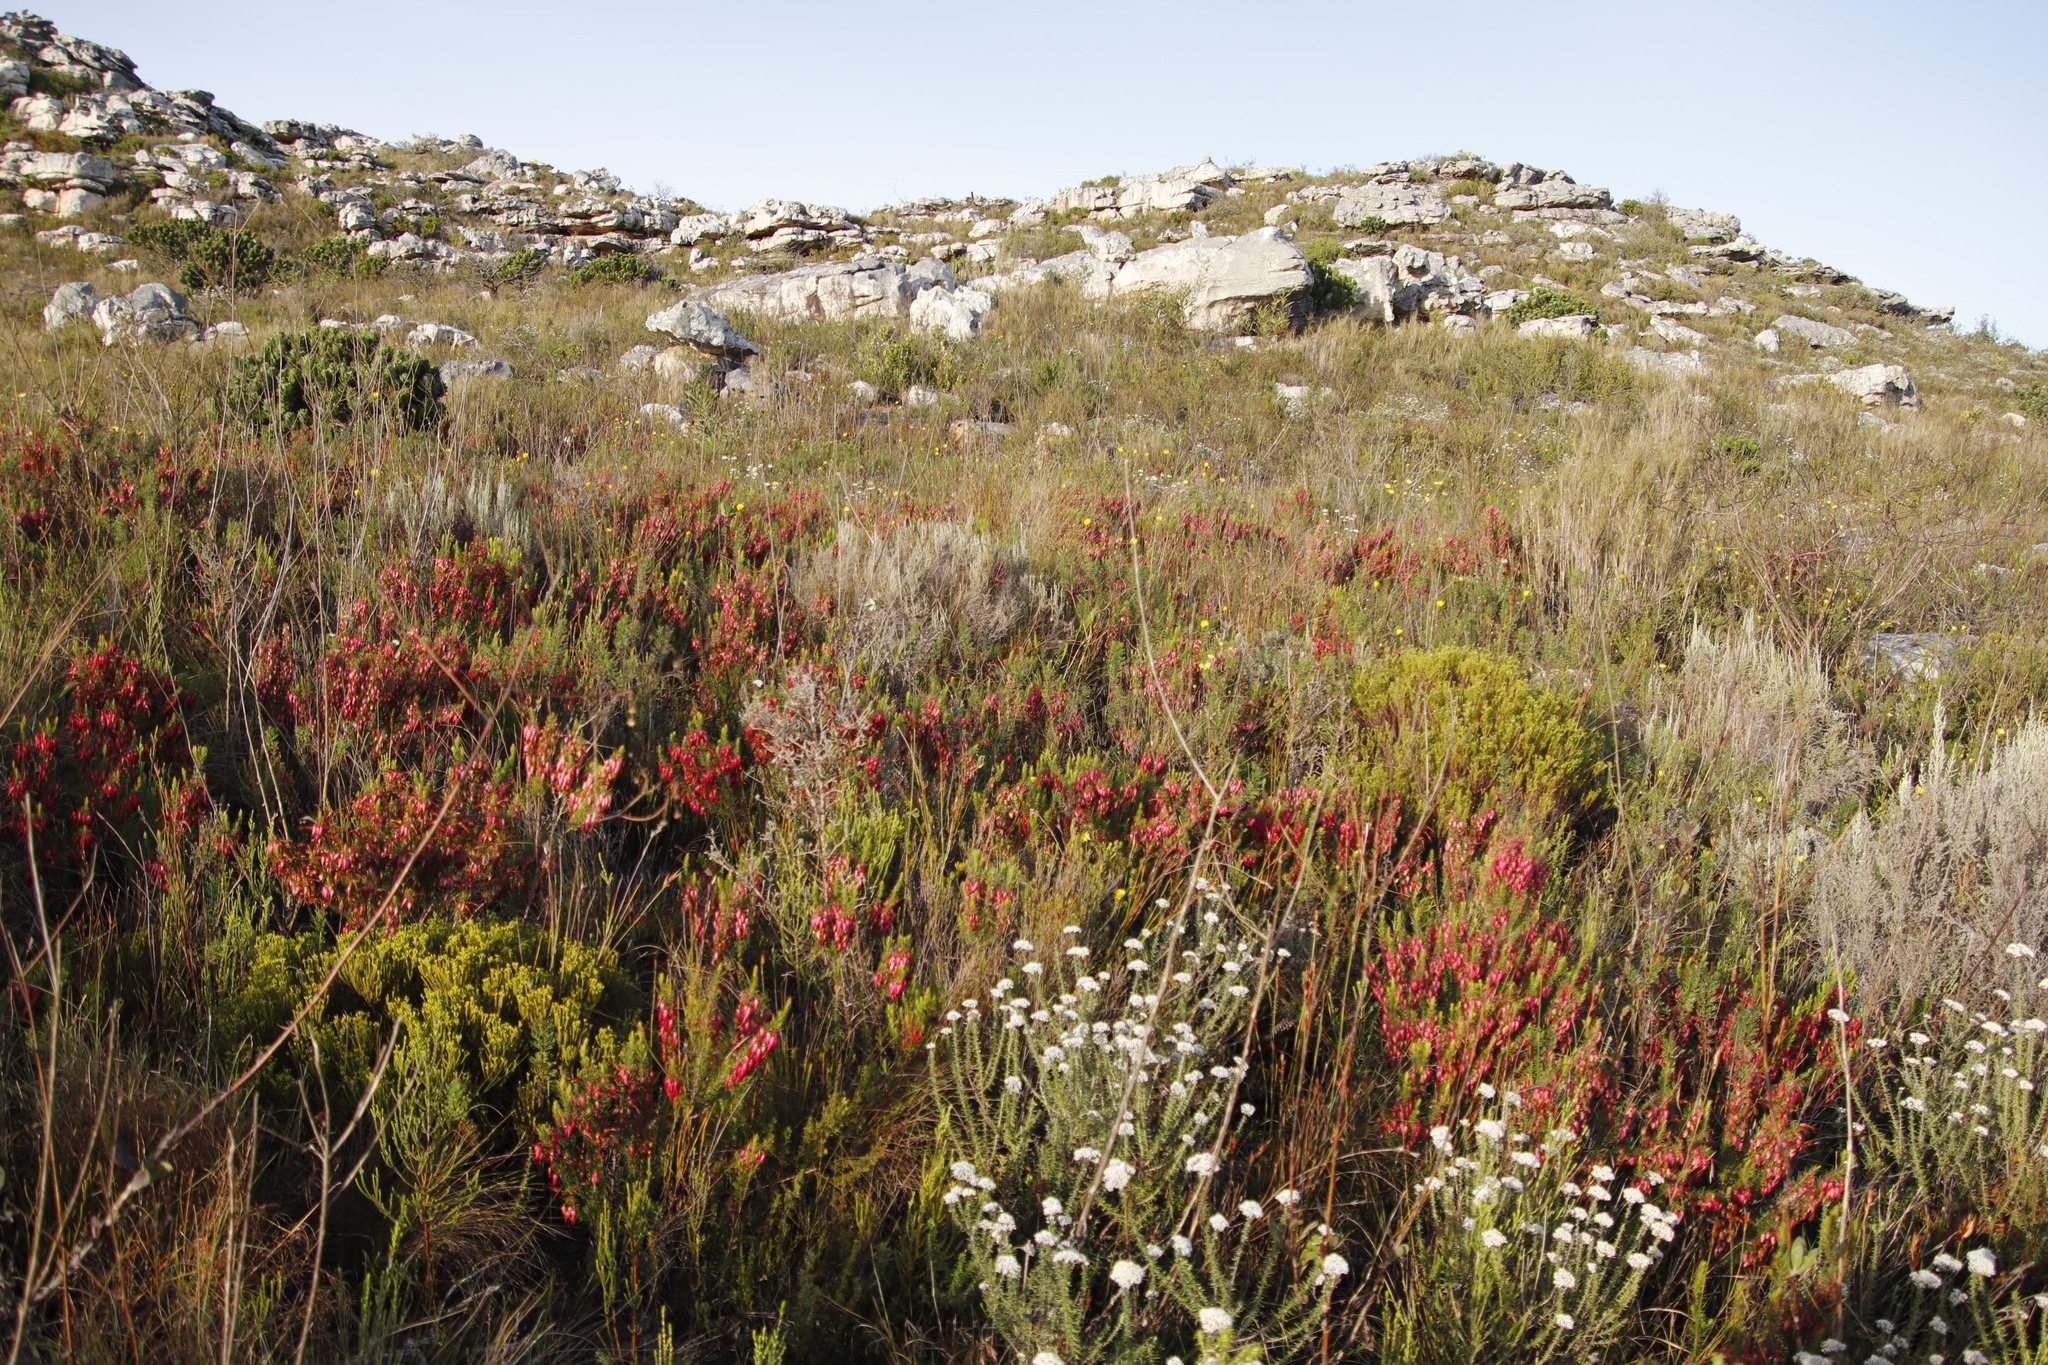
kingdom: Plantae
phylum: Tracheophyta
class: Magnoliopsida
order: Ericales
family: Ericaceae
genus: Erica
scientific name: Erica plukenetii
